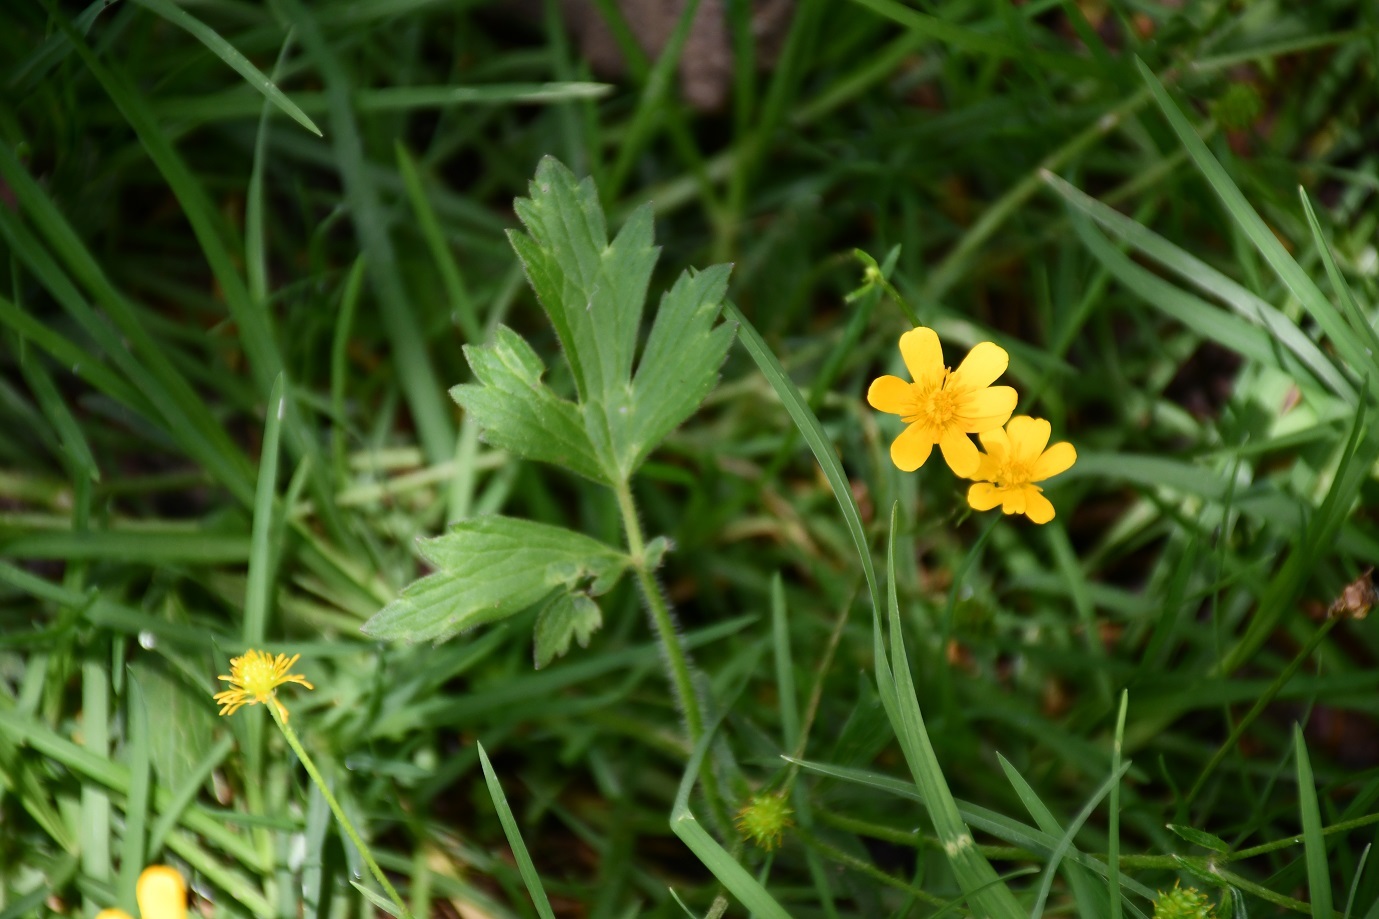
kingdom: Plantae
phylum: Tracheophyta
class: Magnoliopsida
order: Ranunculales
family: Ranunculaceae
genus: Ranunculus
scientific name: Ranunculus petiolaris
